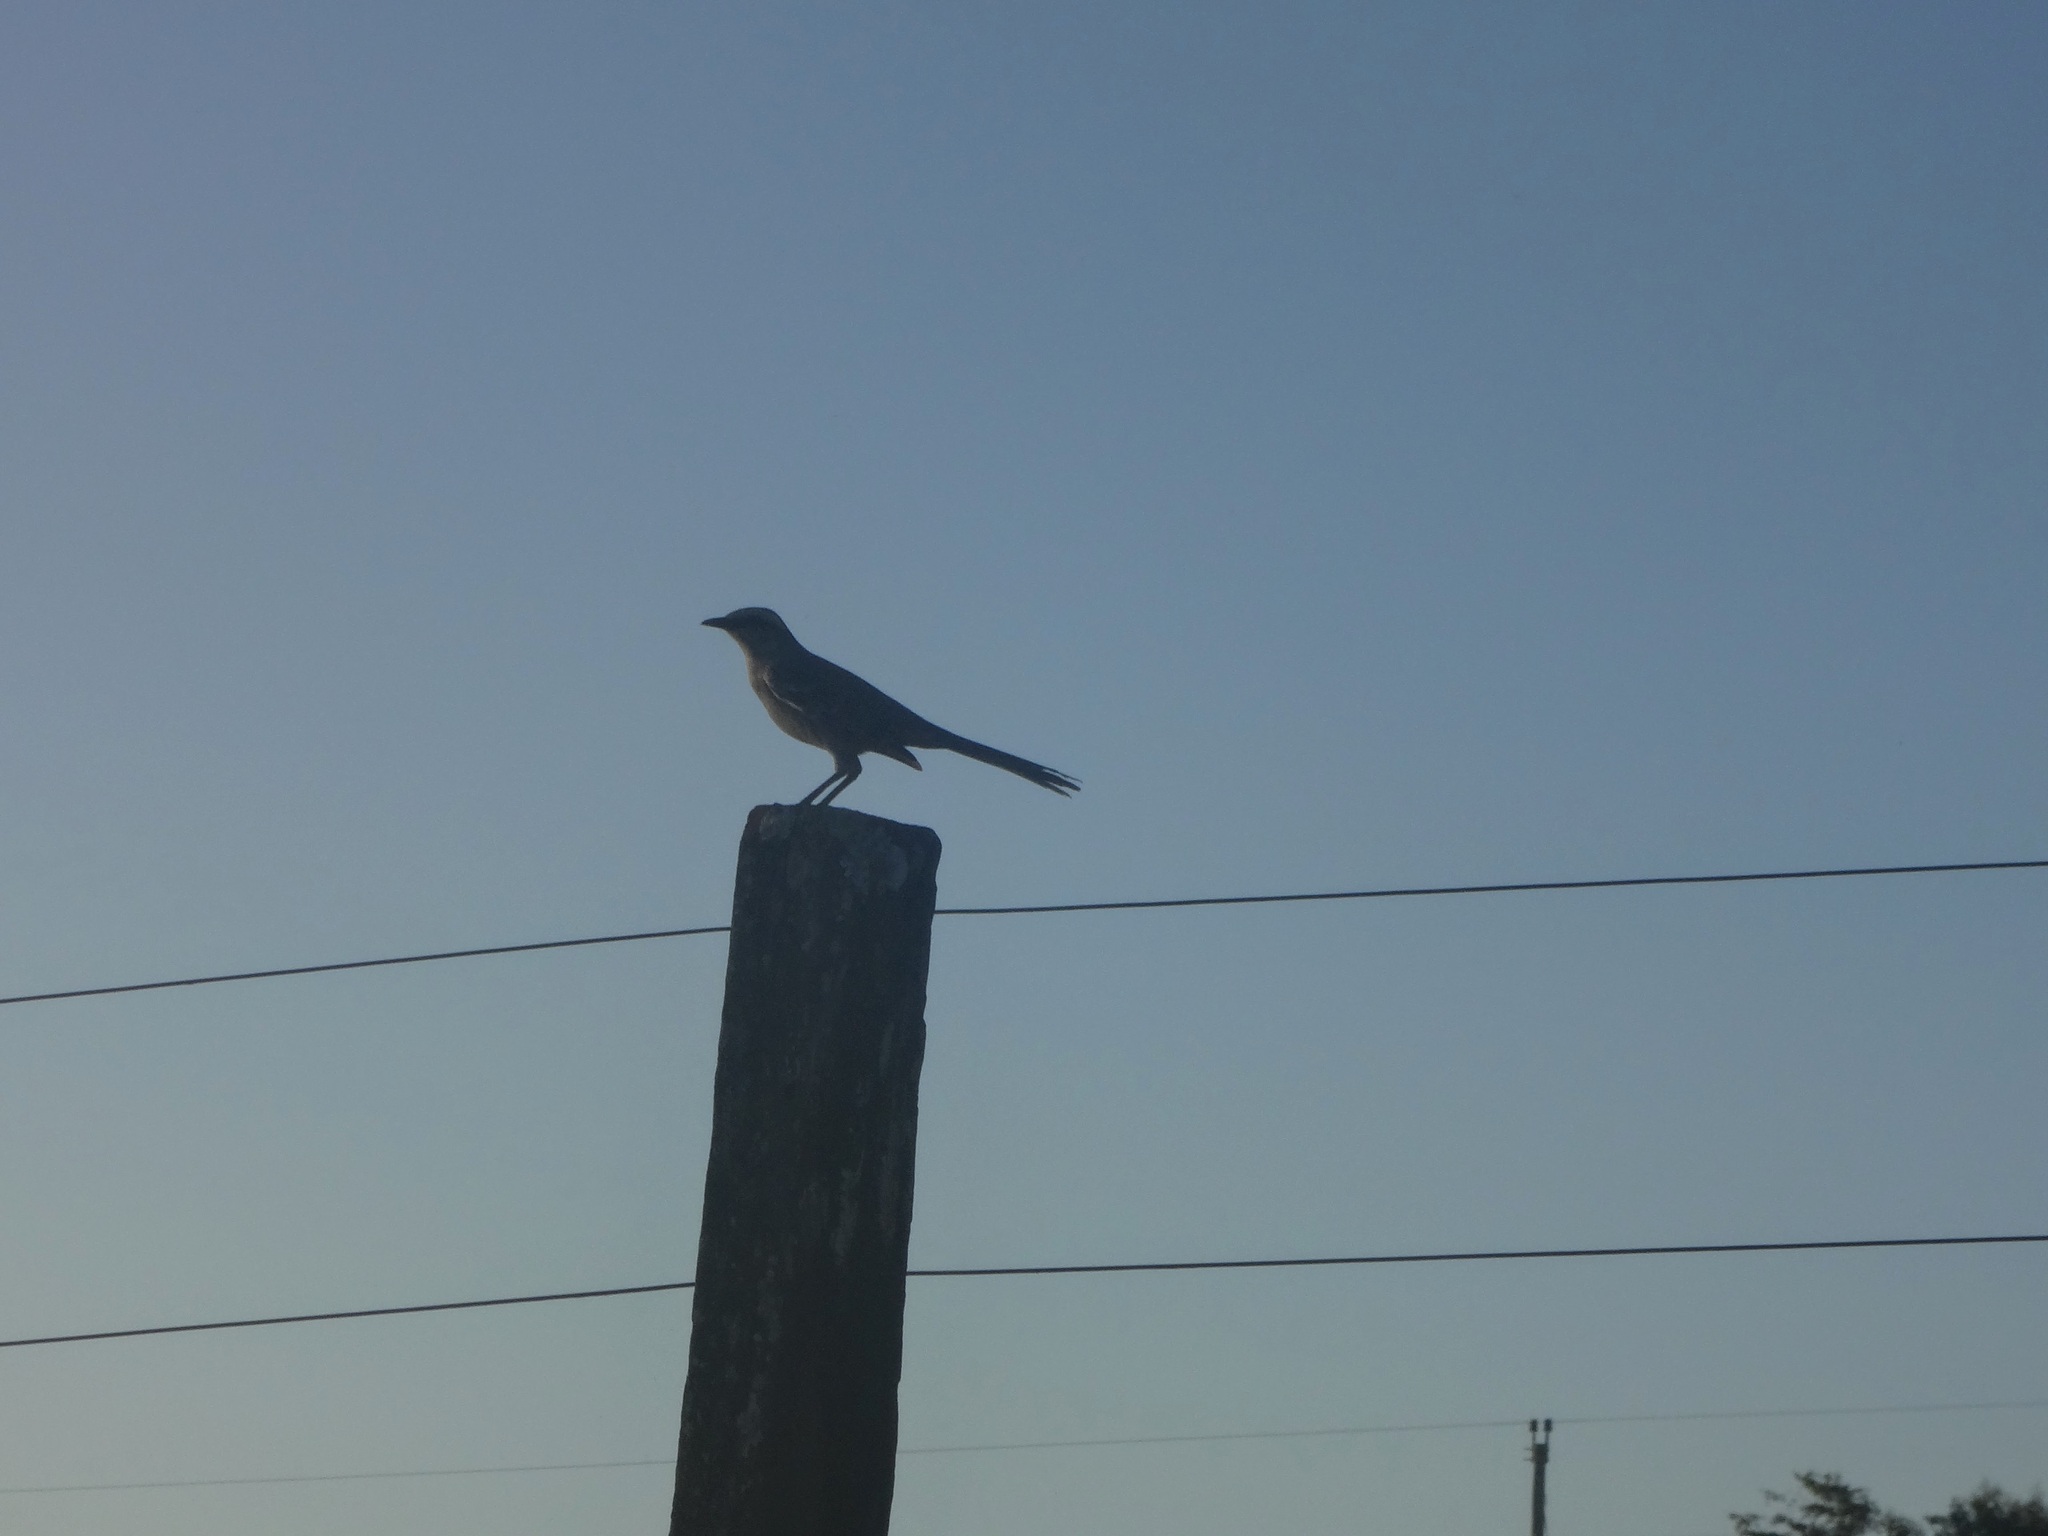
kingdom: Animalia
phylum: Chordata
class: Aves
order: Passeriformes
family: Mimidae
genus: Mimus
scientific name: Mimus saturninus
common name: Chalk-browed mockingbird
